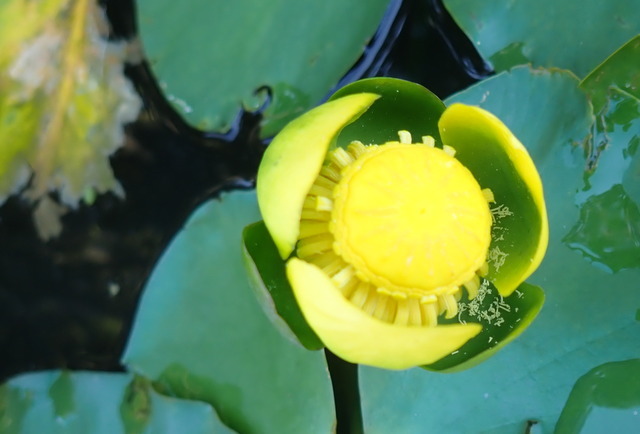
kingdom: Plantae
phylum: Tracheophyta
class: Magnoliopsida
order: Nymphaeales
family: Nymphaeaceae
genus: Nuphar
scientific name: Nuphar advena
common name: Spatter-dock
